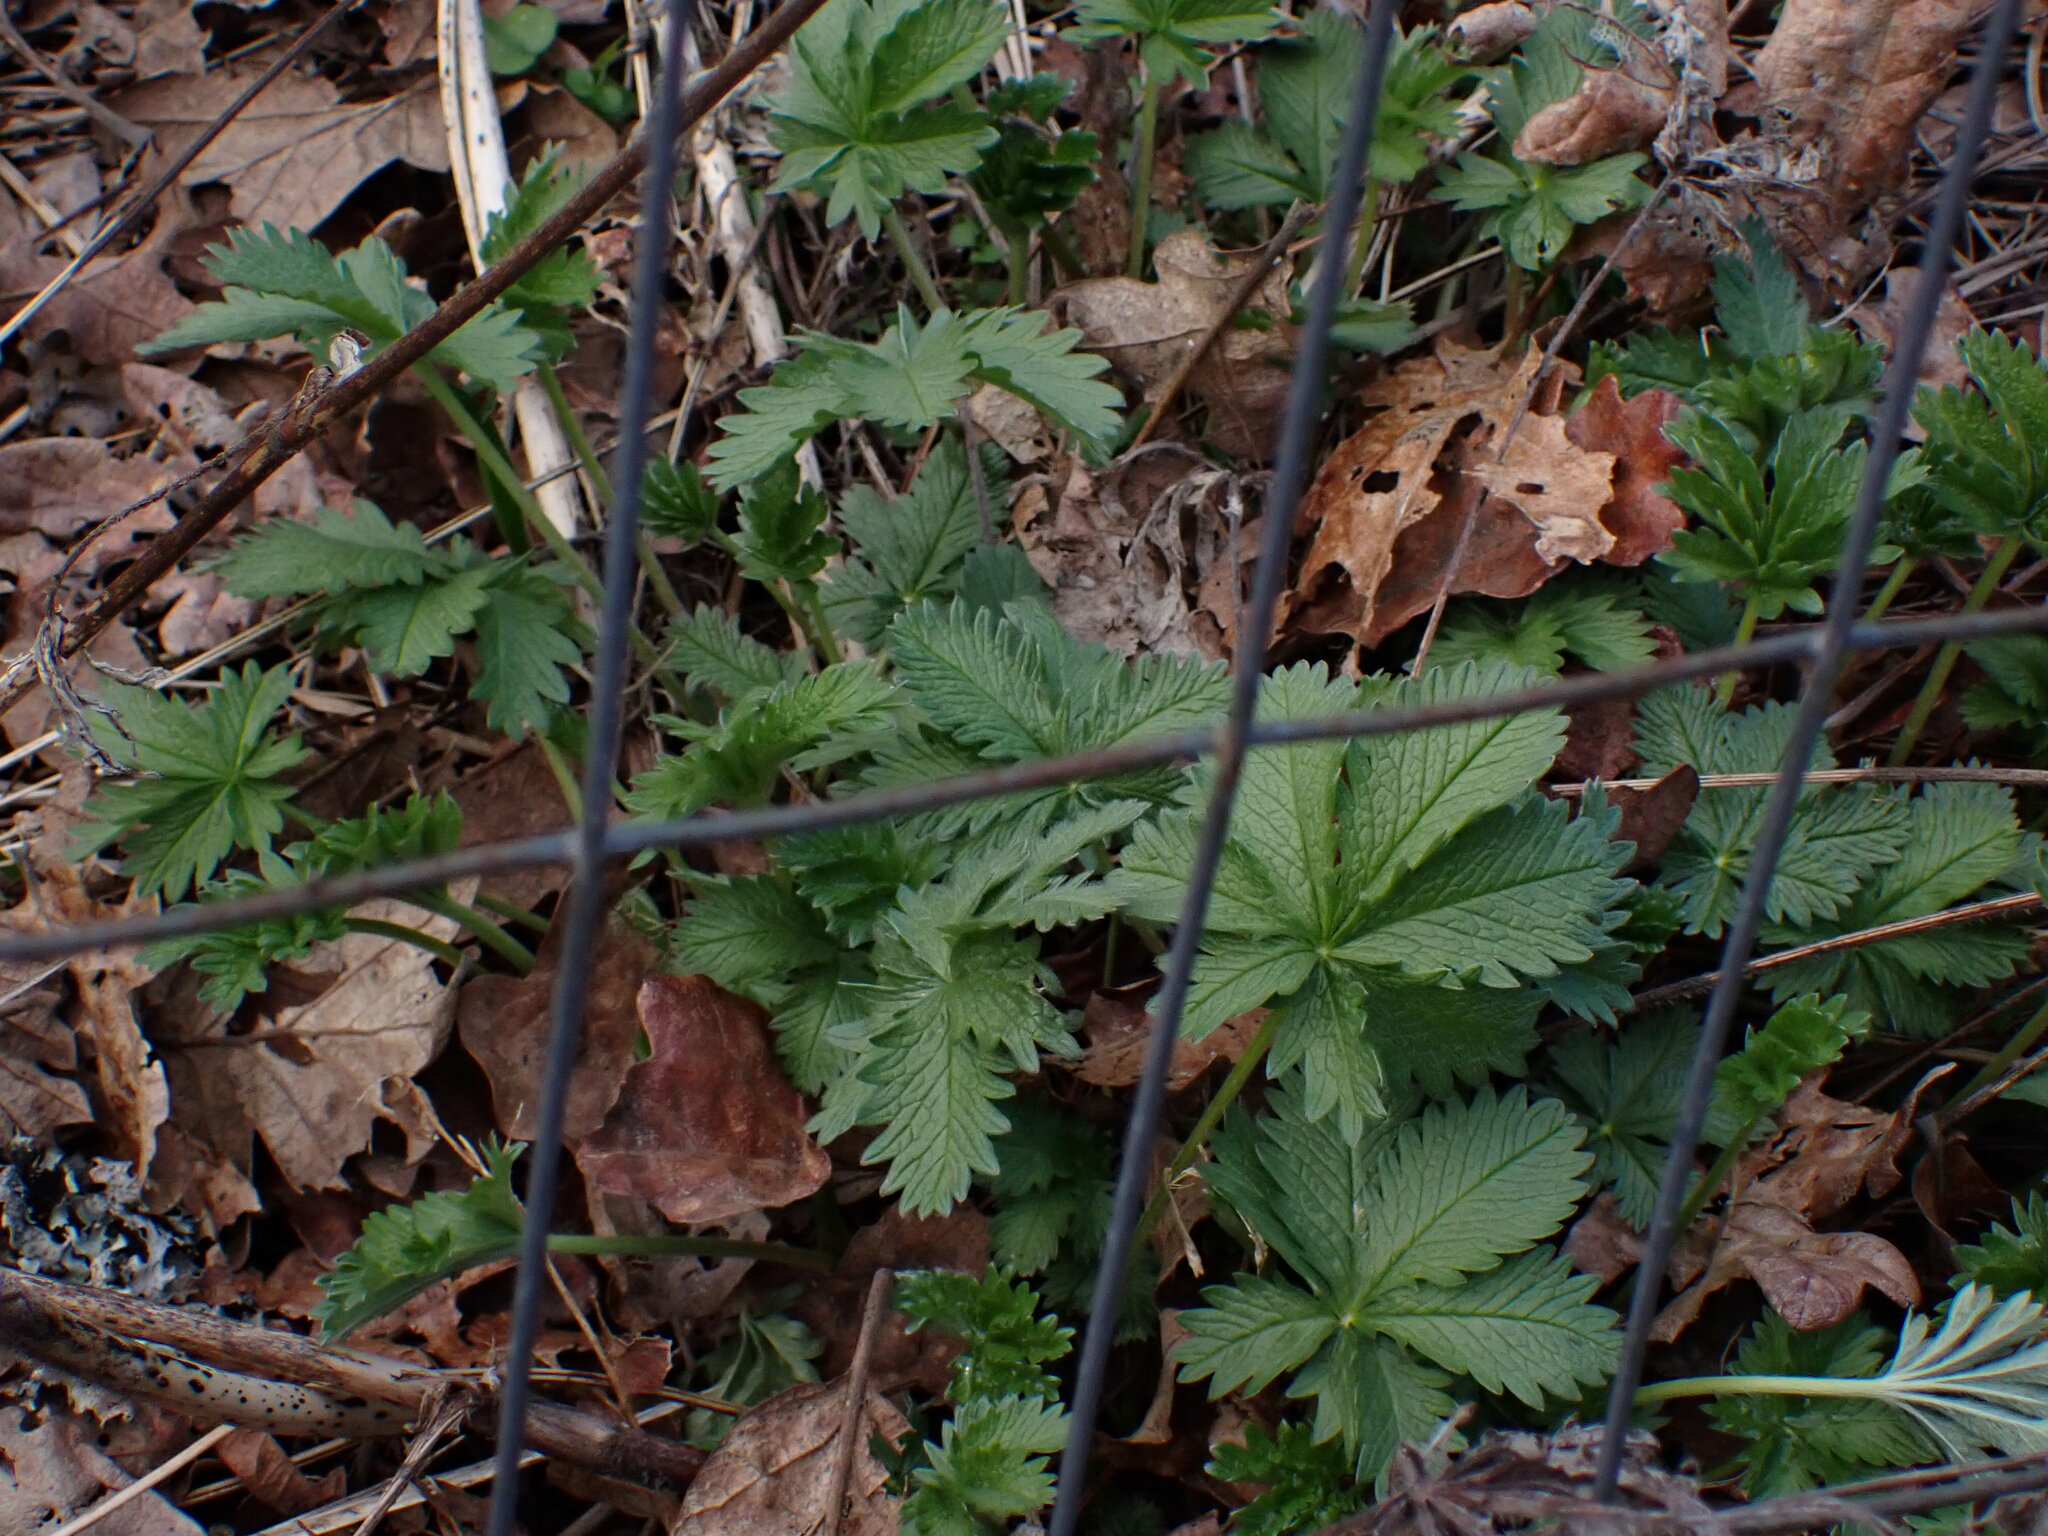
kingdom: Plantae
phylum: Tracheophyta
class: Magnoliopsida
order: Rosales
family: Rosaceae
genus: Potentilla
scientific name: Potentilla gracilis
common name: Graceful cinquefoil
